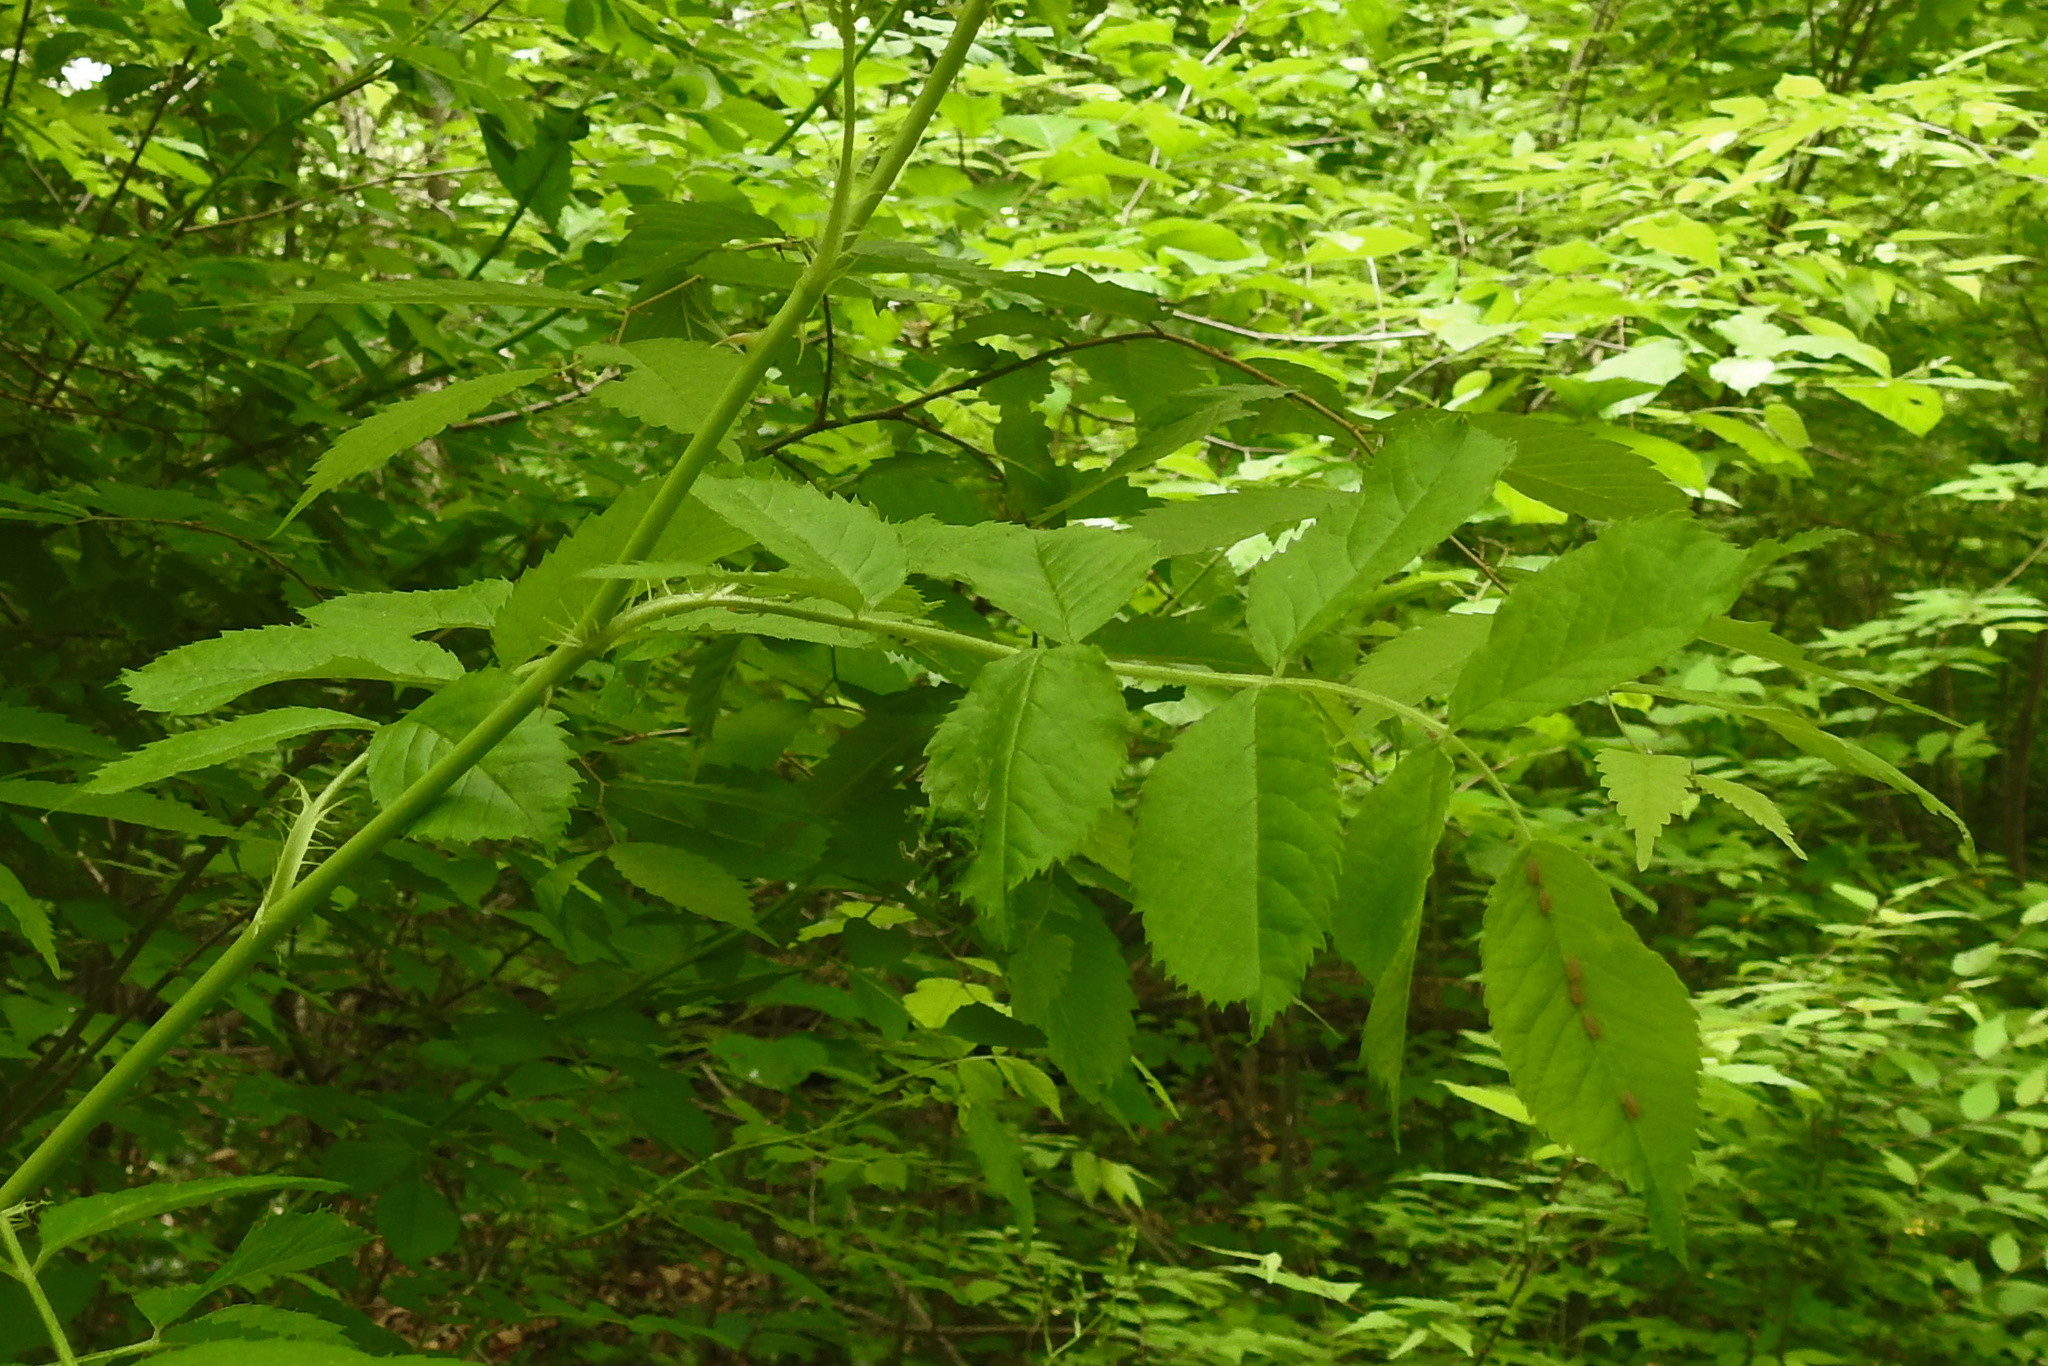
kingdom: Plantae
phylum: Tracheophyta
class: Magnoliopsida
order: Rosales
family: Rosaceae
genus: Rosa
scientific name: Rosa multiflora
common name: Multiflora rose
